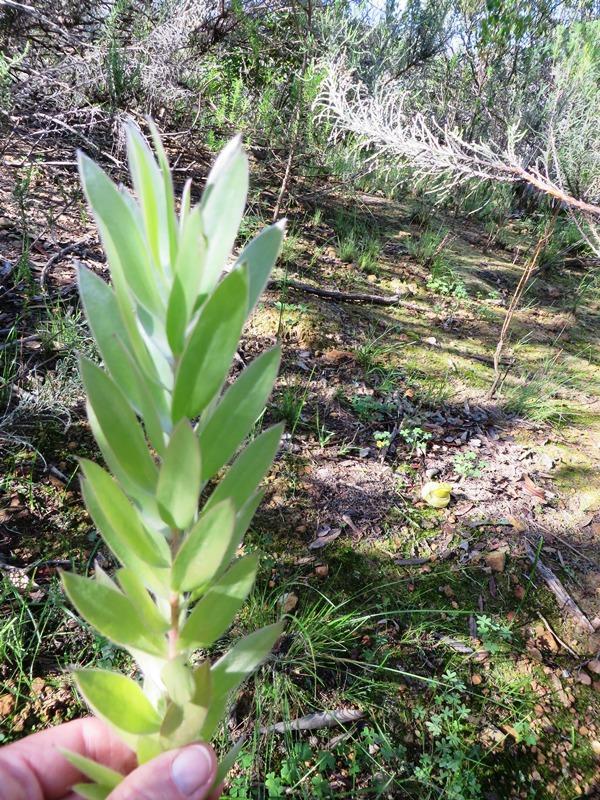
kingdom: Plantae
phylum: Tracheophyta
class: Magnoliopsida
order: Proteales
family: Proteaceae
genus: Leucadendron
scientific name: Leucadendron argenteum
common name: Cape silver tree
